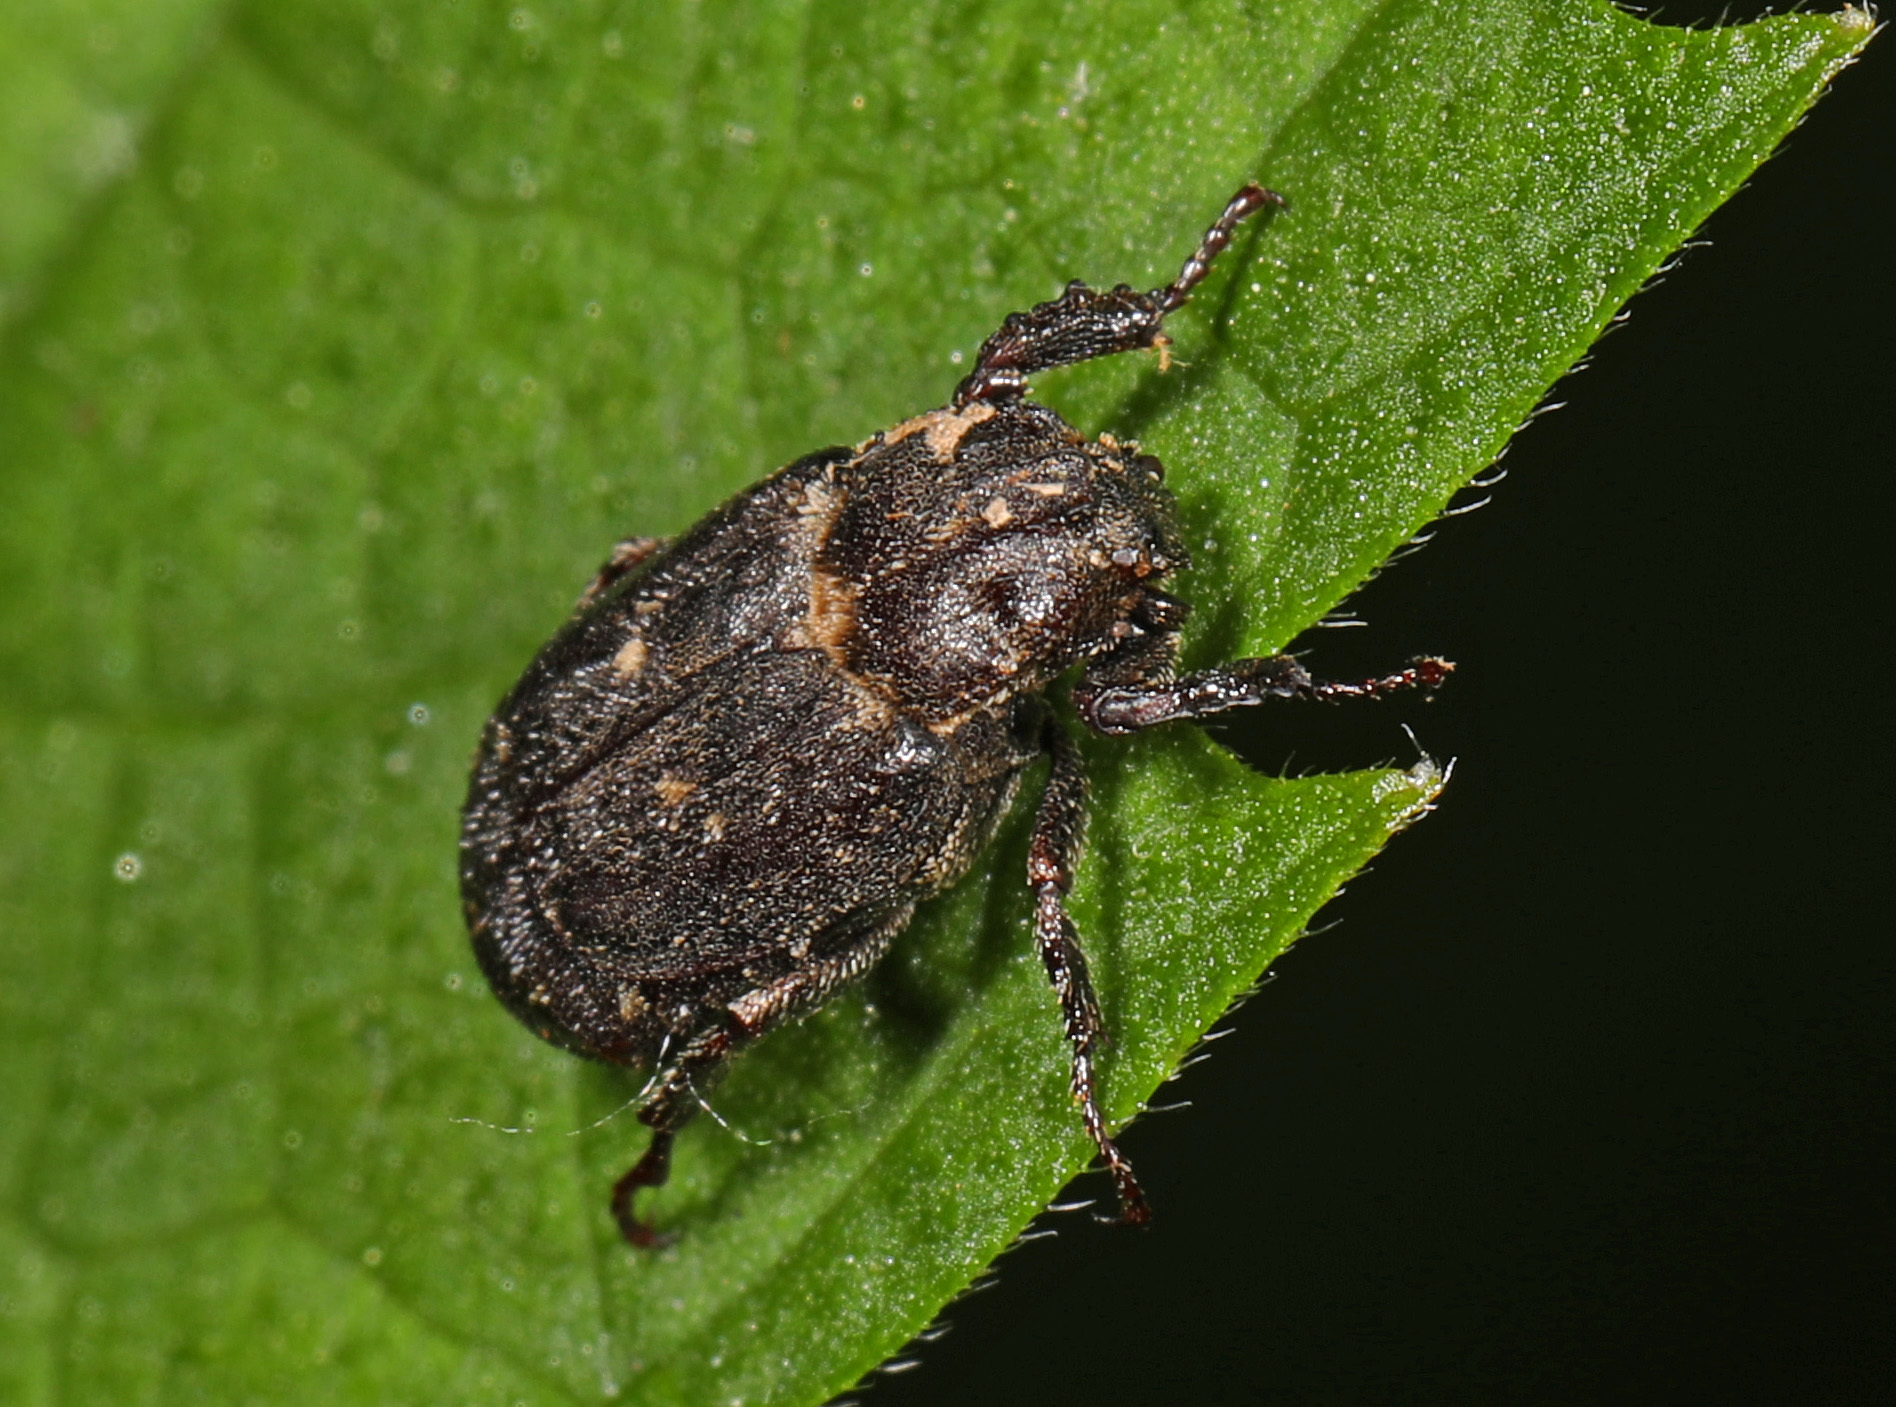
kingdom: Animalia
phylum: Arthropoda
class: Insecta
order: Coleoptera
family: Scarabaeidae
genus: Valgus
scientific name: Valgus seticollis
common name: Bristly-necked valgus
